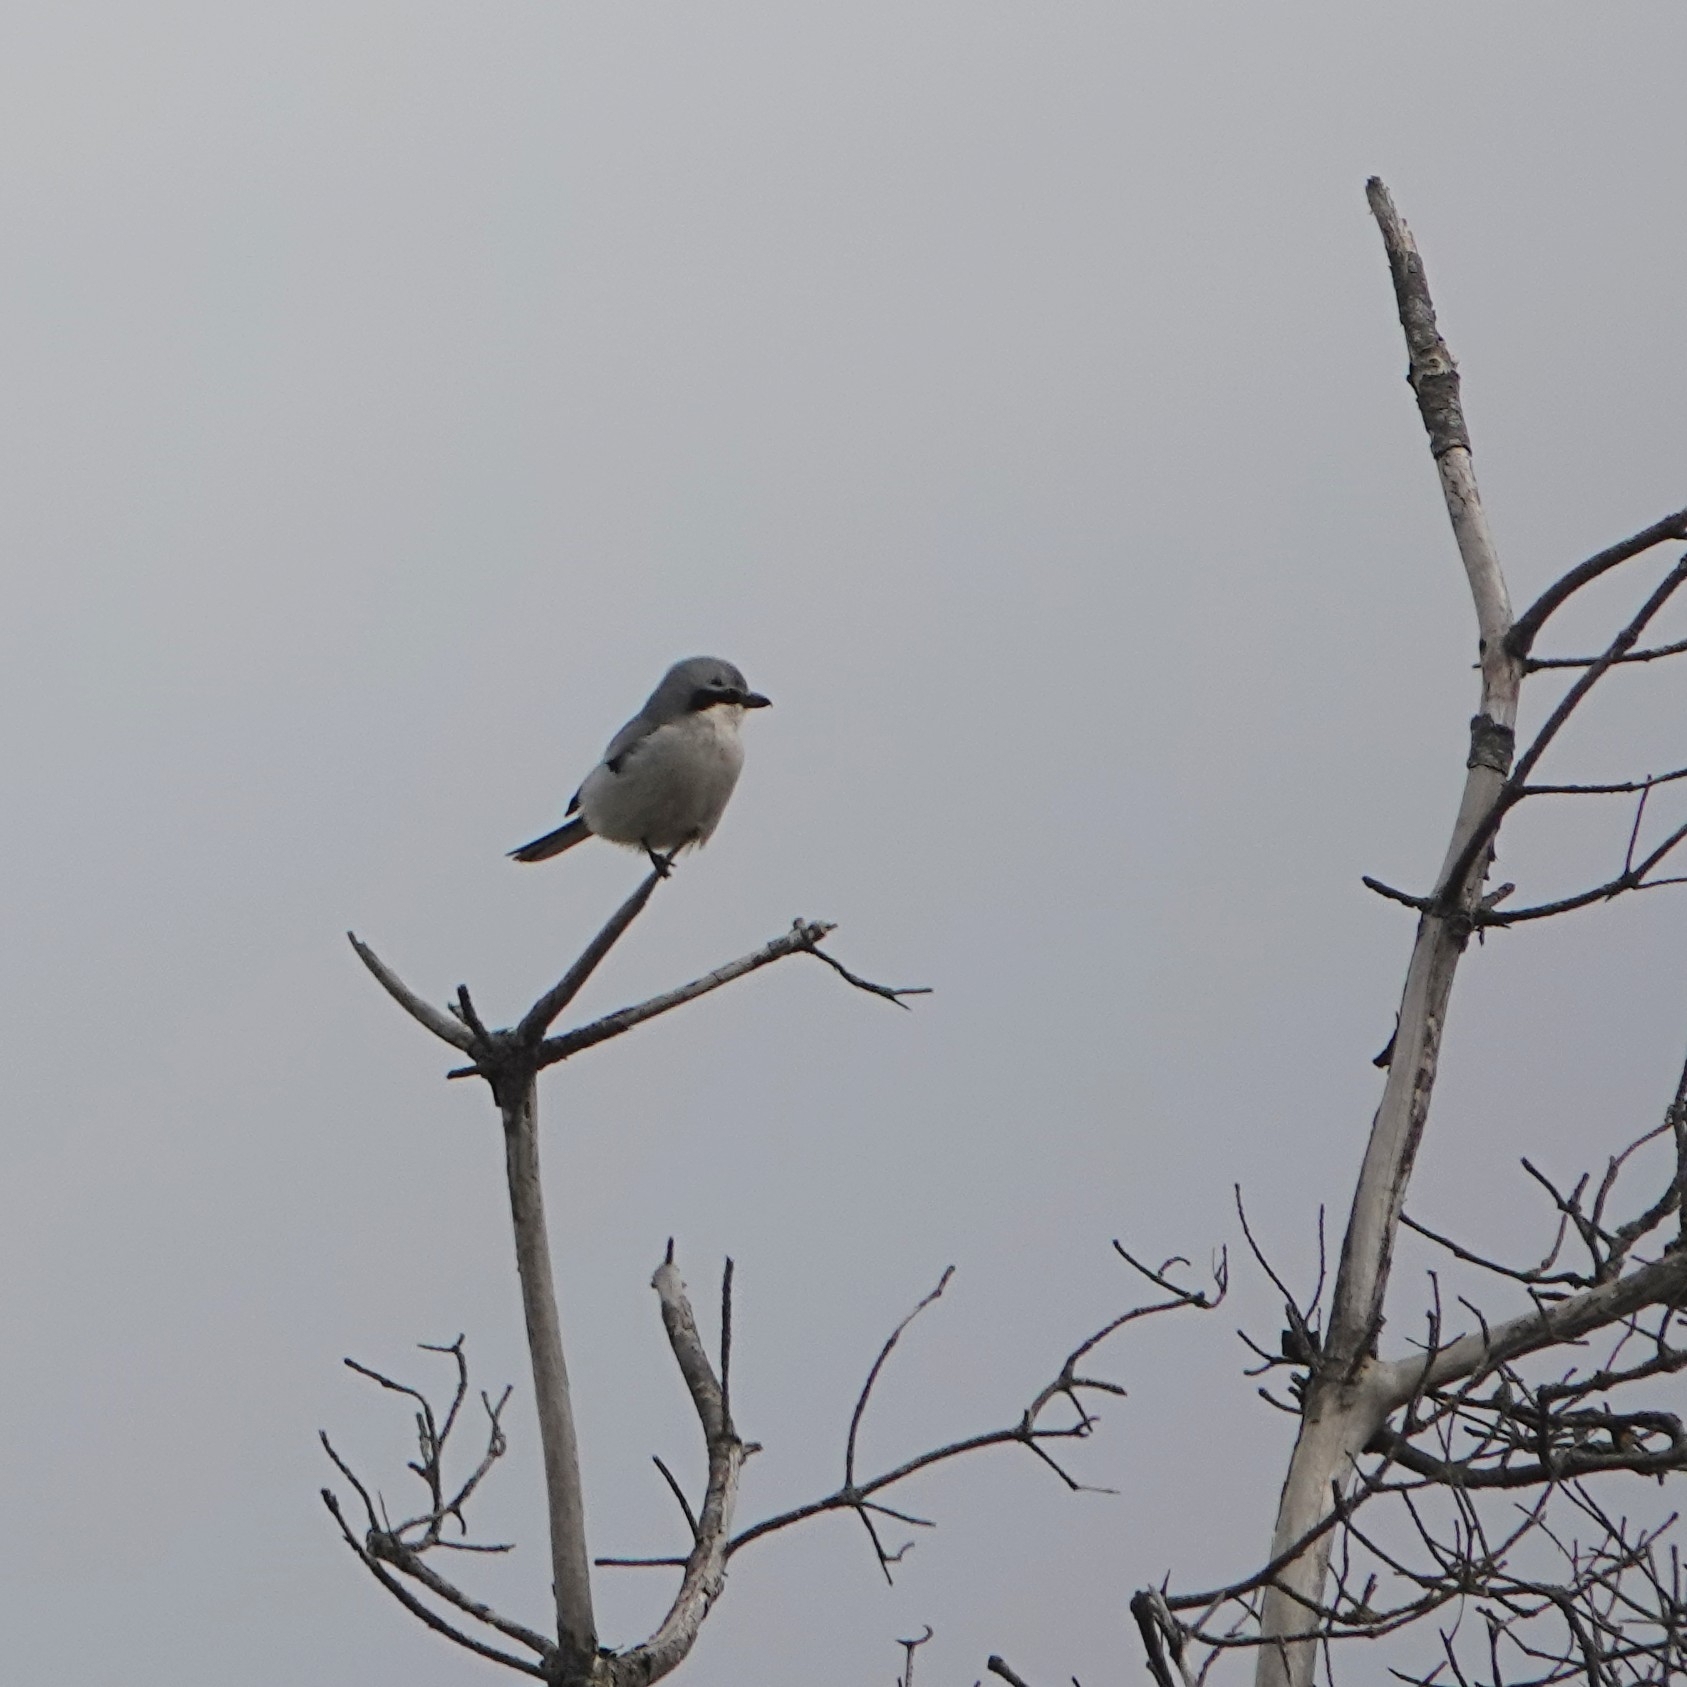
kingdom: Animalia
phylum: Chordata
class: Aves
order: Passeriformes
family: Laniidae
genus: Lanius
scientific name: Lanius excubitor
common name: Great grey shrike
